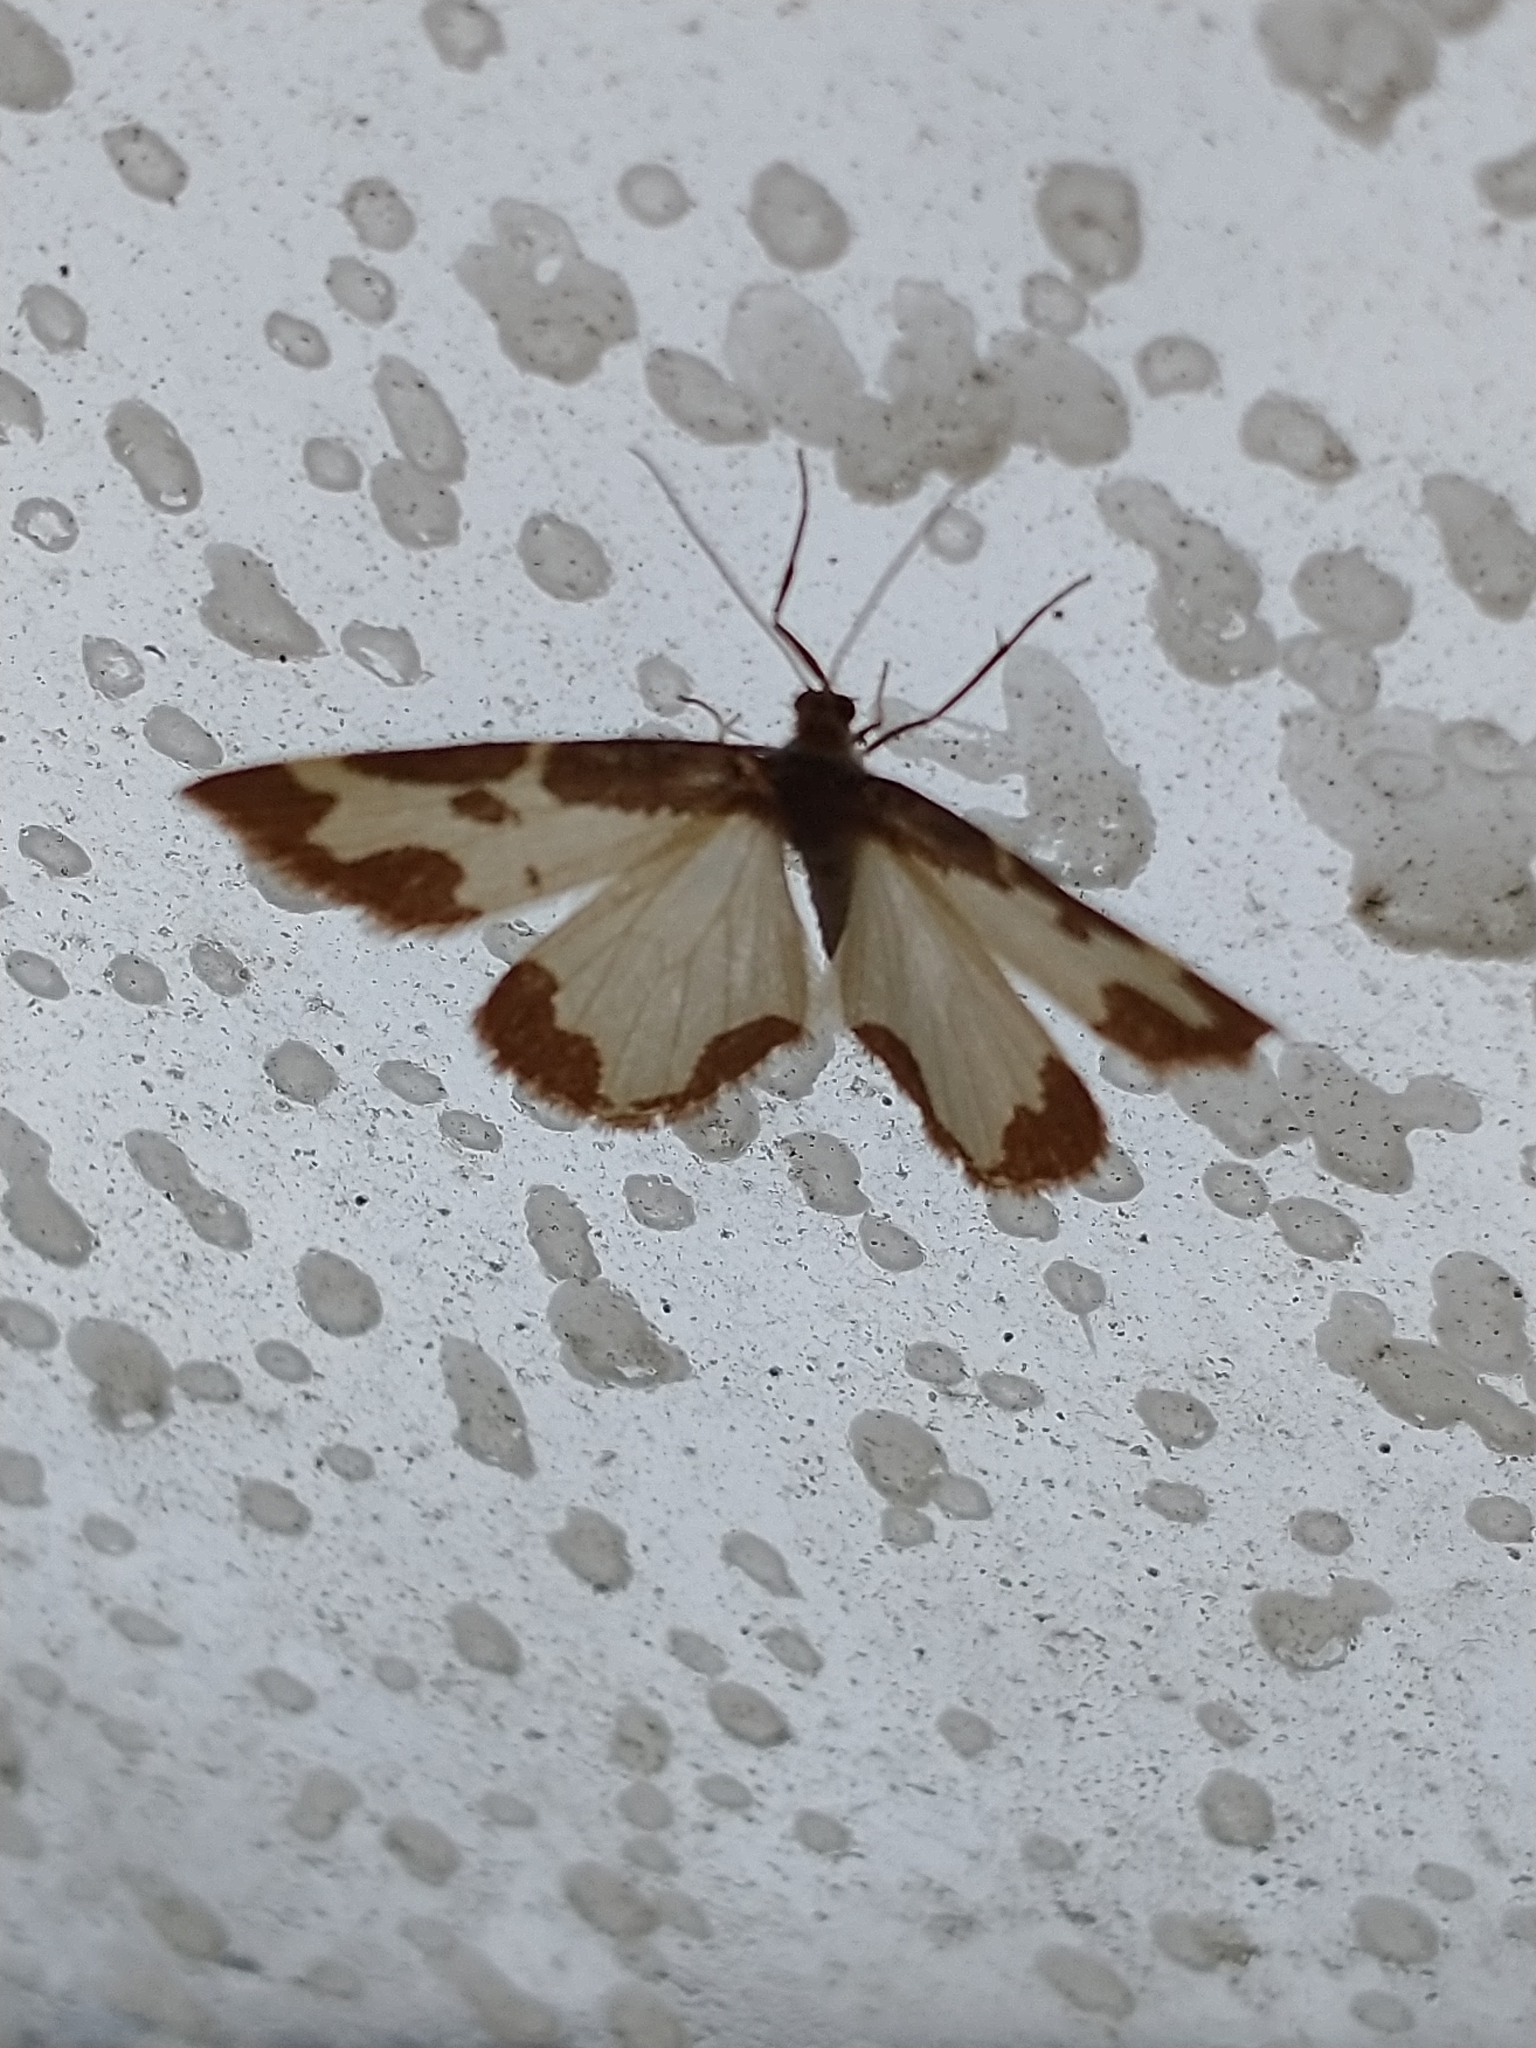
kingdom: Animalia
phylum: Arthropoda
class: Insecta
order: Lepidoptera
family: Geometridae
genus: Lomaspilis
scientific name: Lomaspilis marginata
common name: Clouded border
